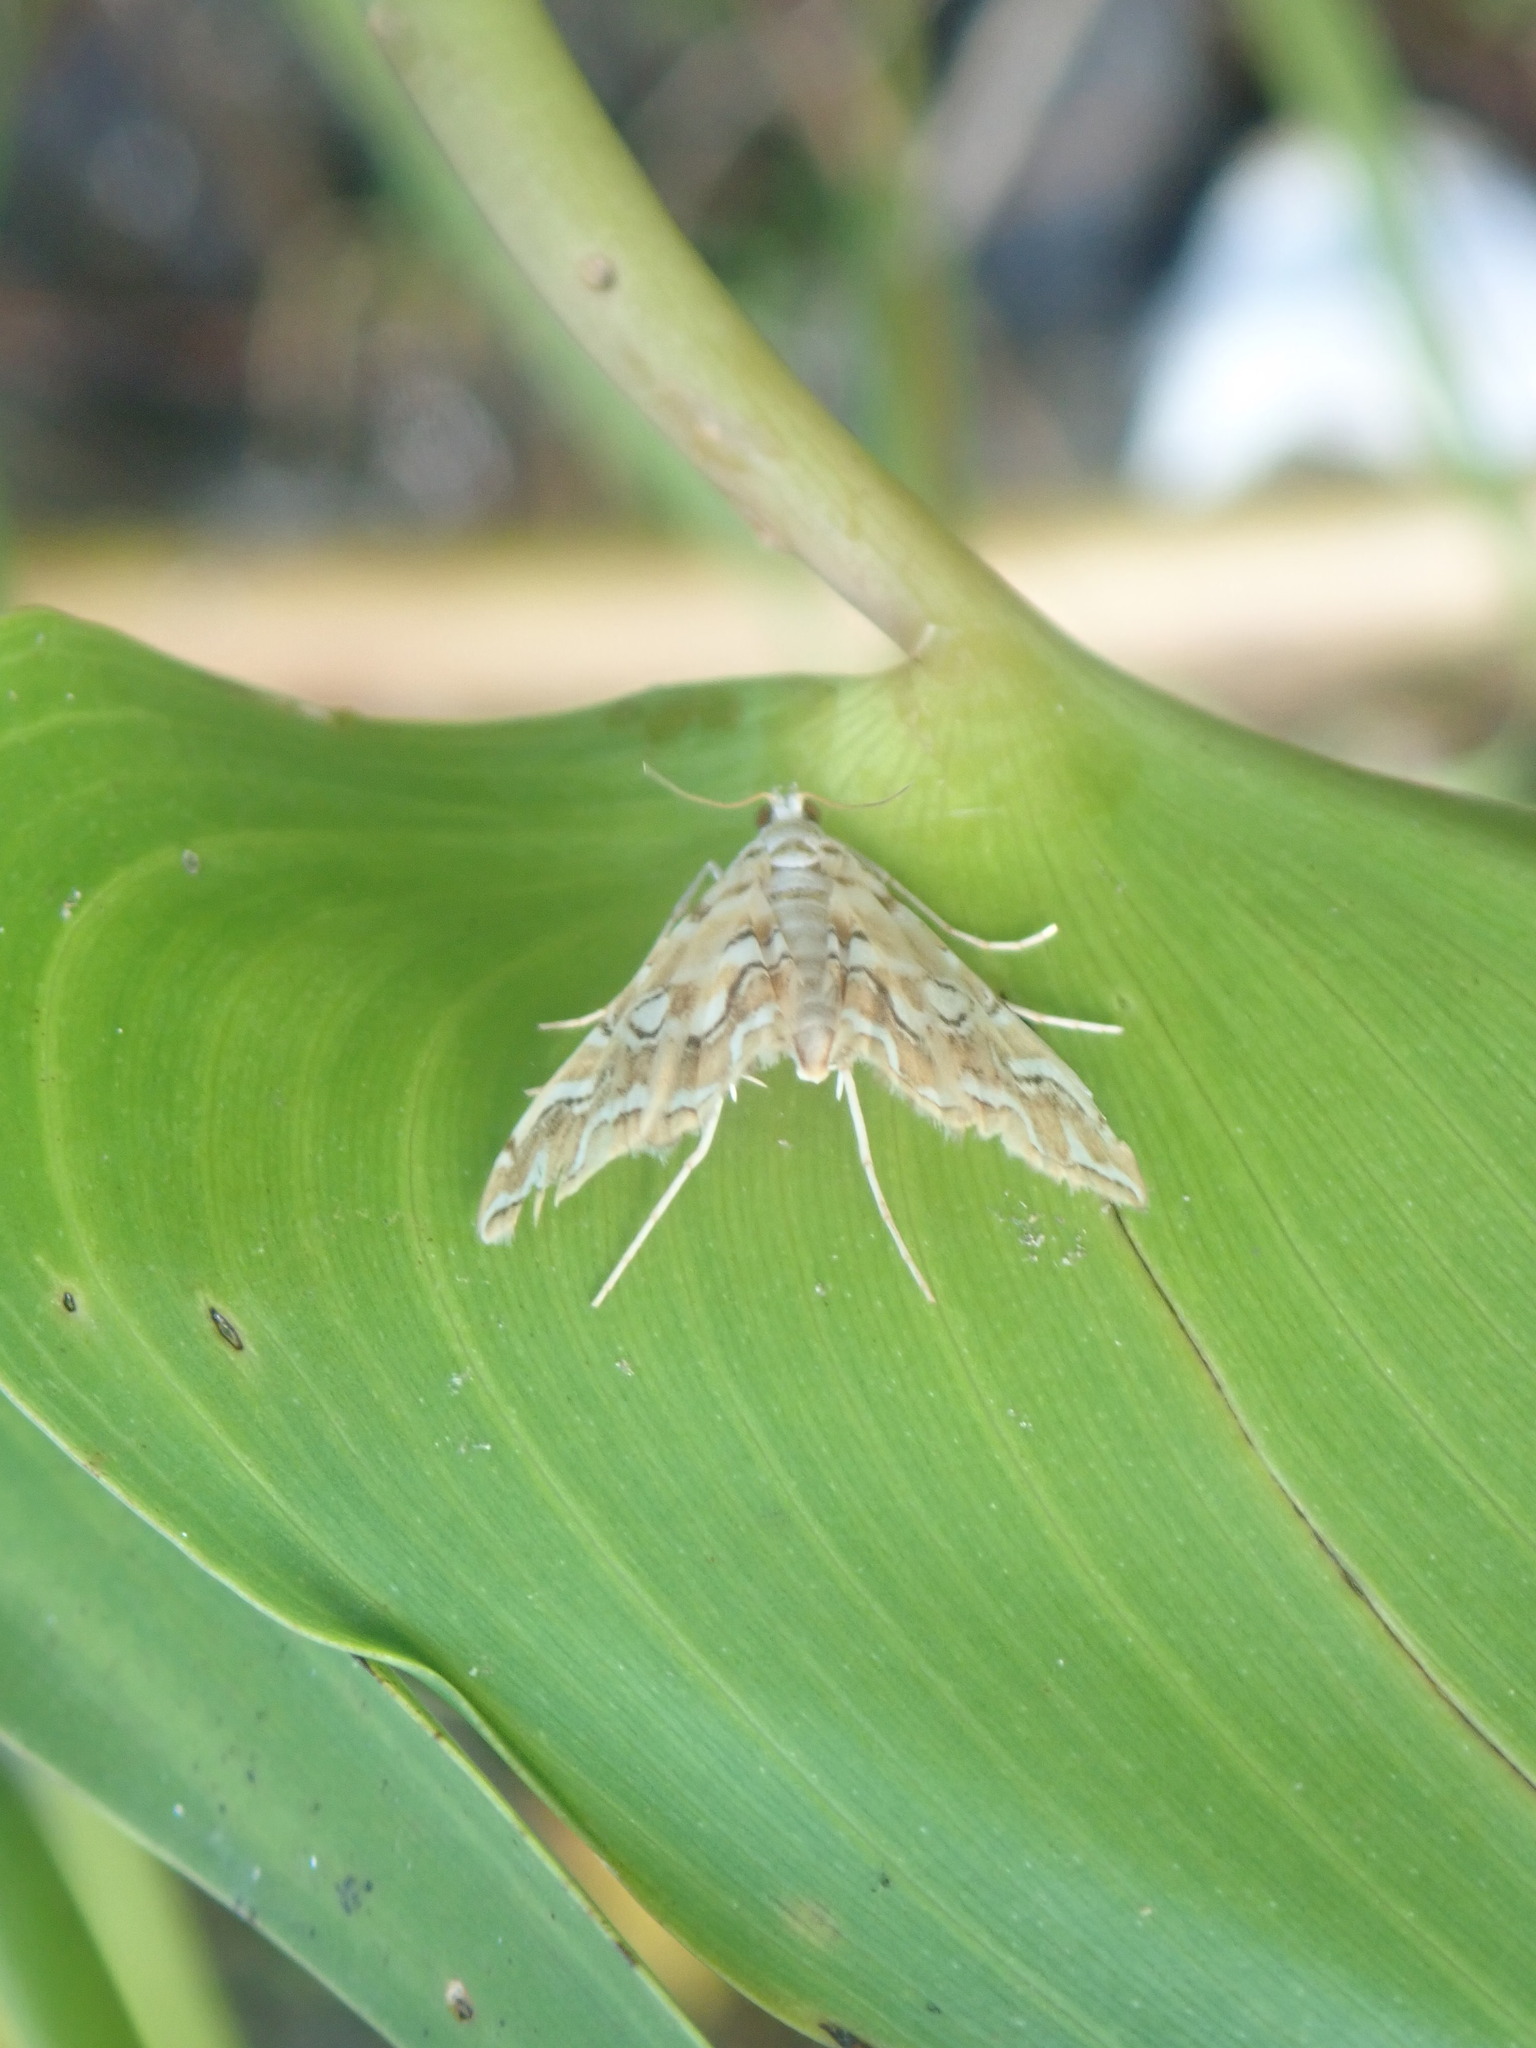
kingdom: Animalia
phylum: Arthropoda
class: Insecta
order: Lepidoptera
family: Crambidae
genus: Elophila
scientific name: Elophila icciusalis
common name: Pondside pyralid moth
